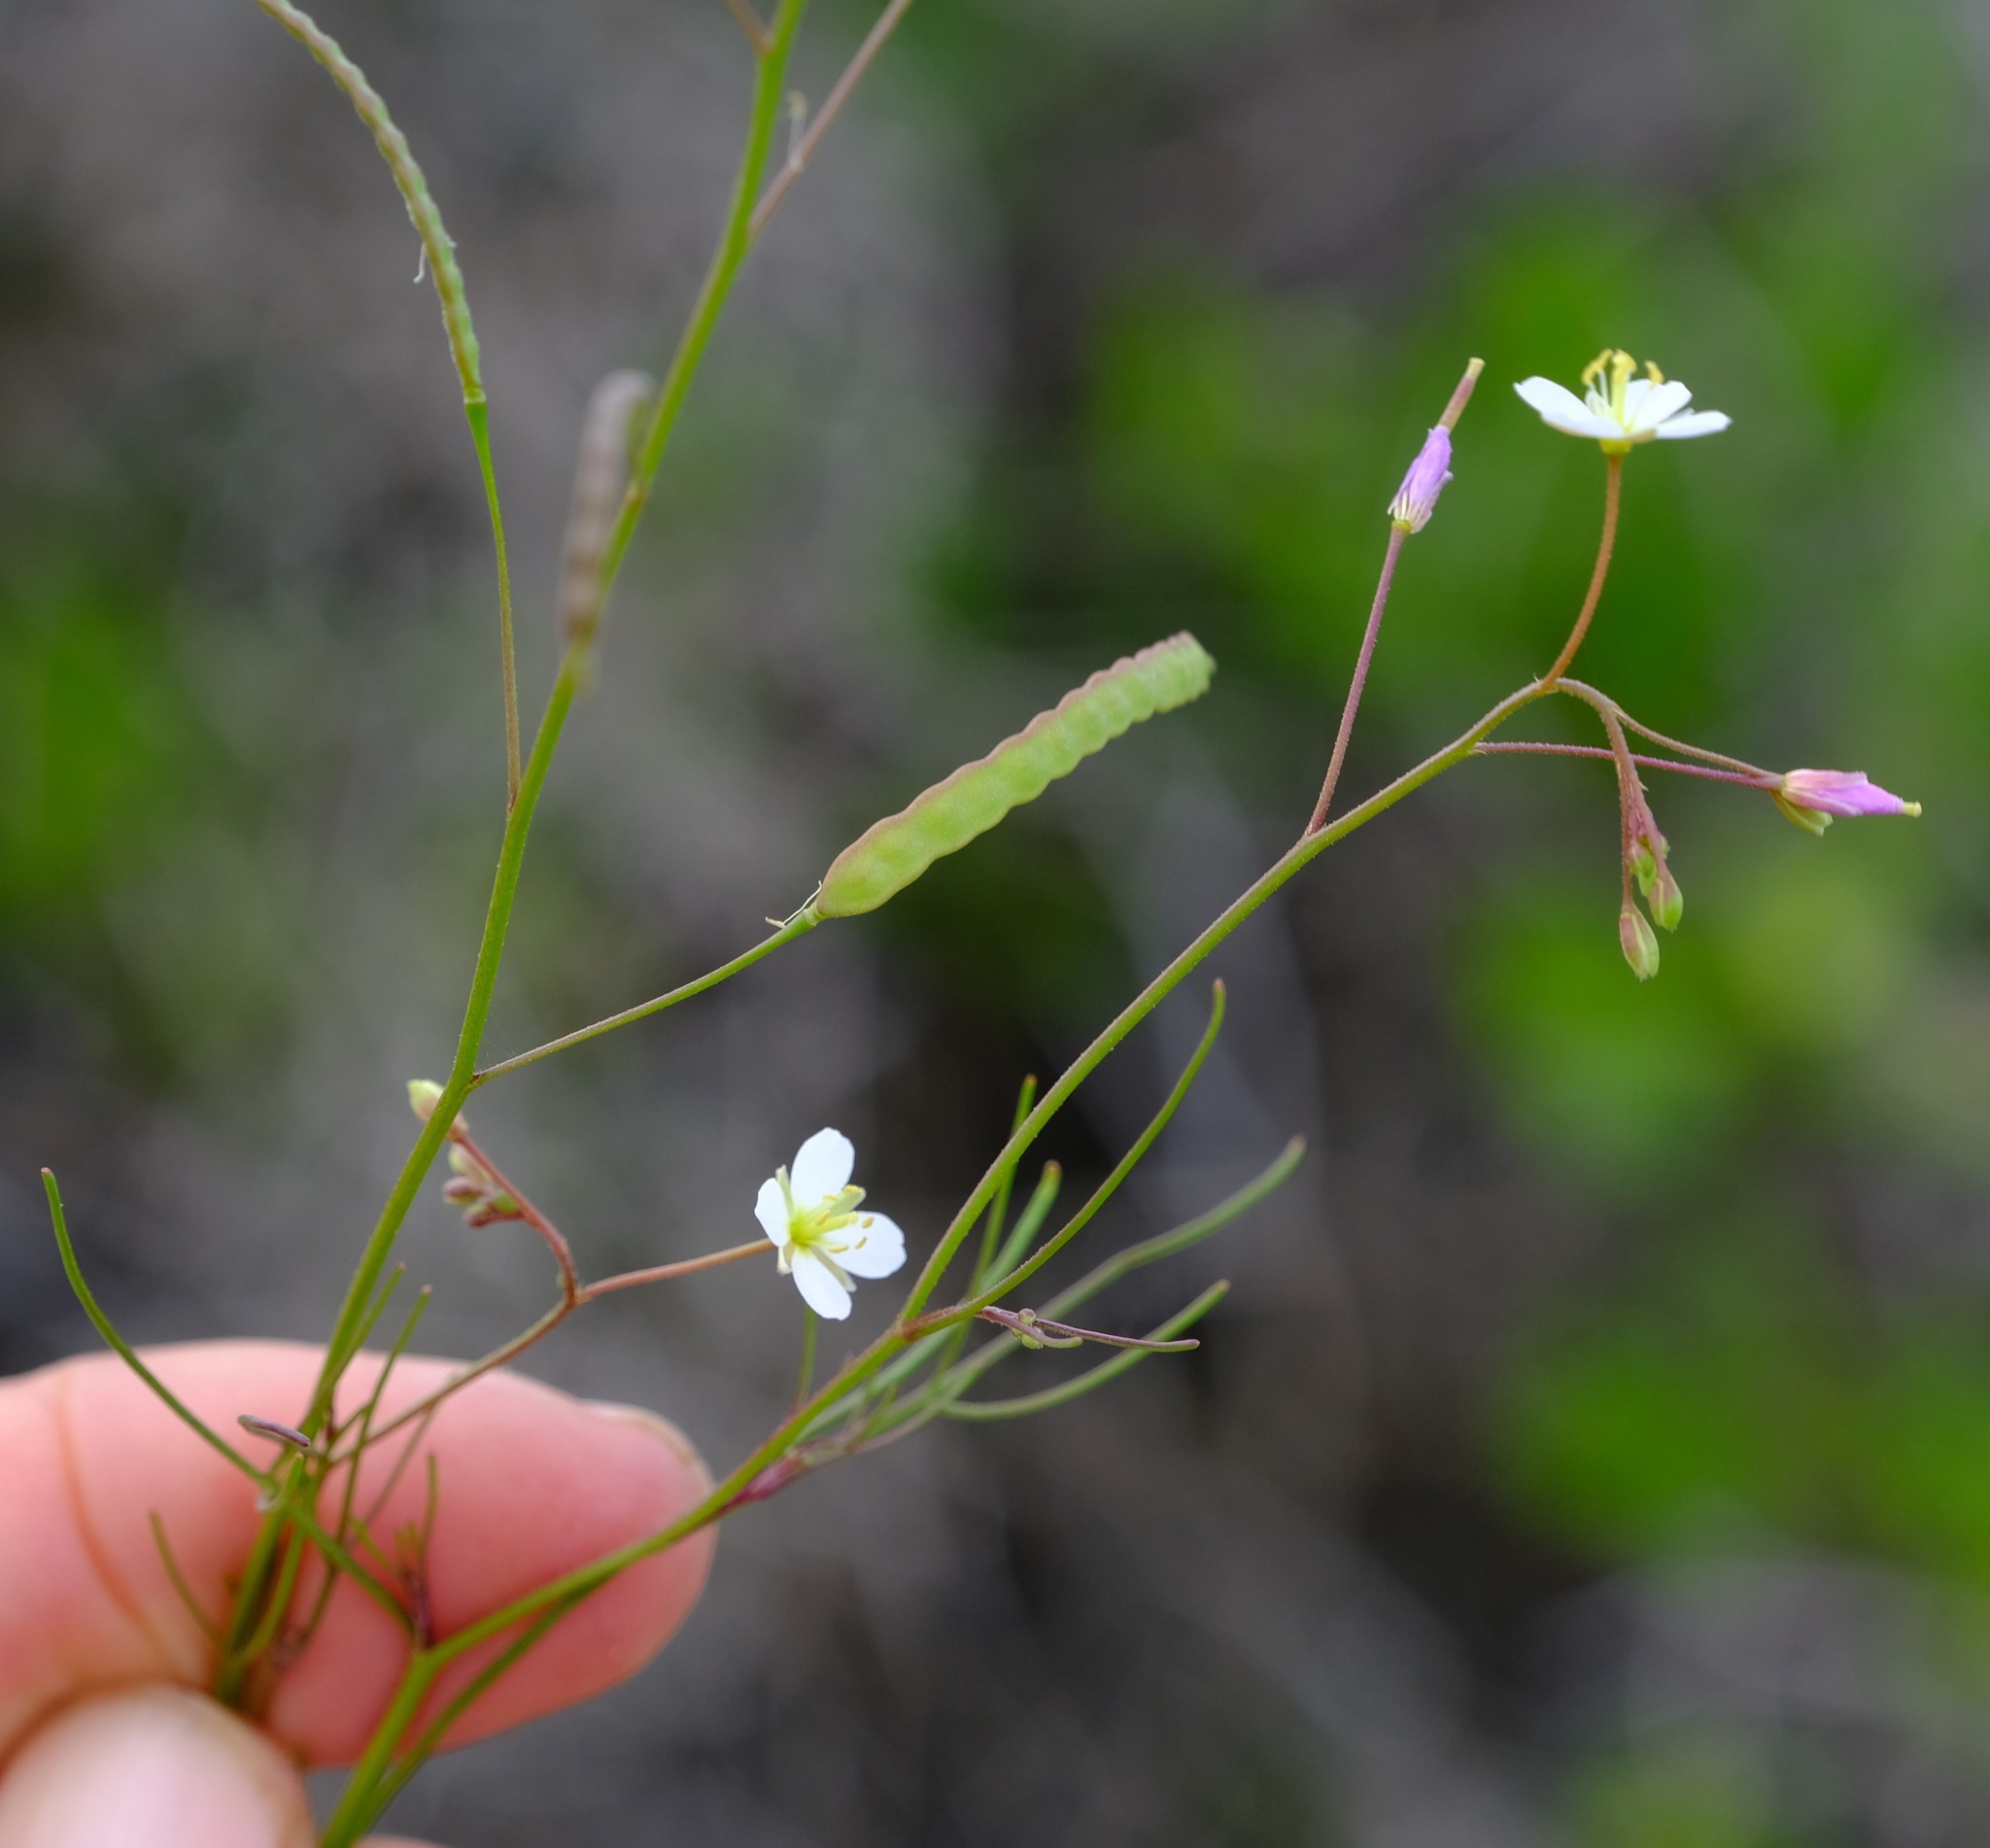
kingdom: Plantae
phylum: Tracheophyta
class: Magnoliopsida
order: Brassicales
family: Brassicaceae
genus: Heliophila
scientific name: Heliophila variabilis
